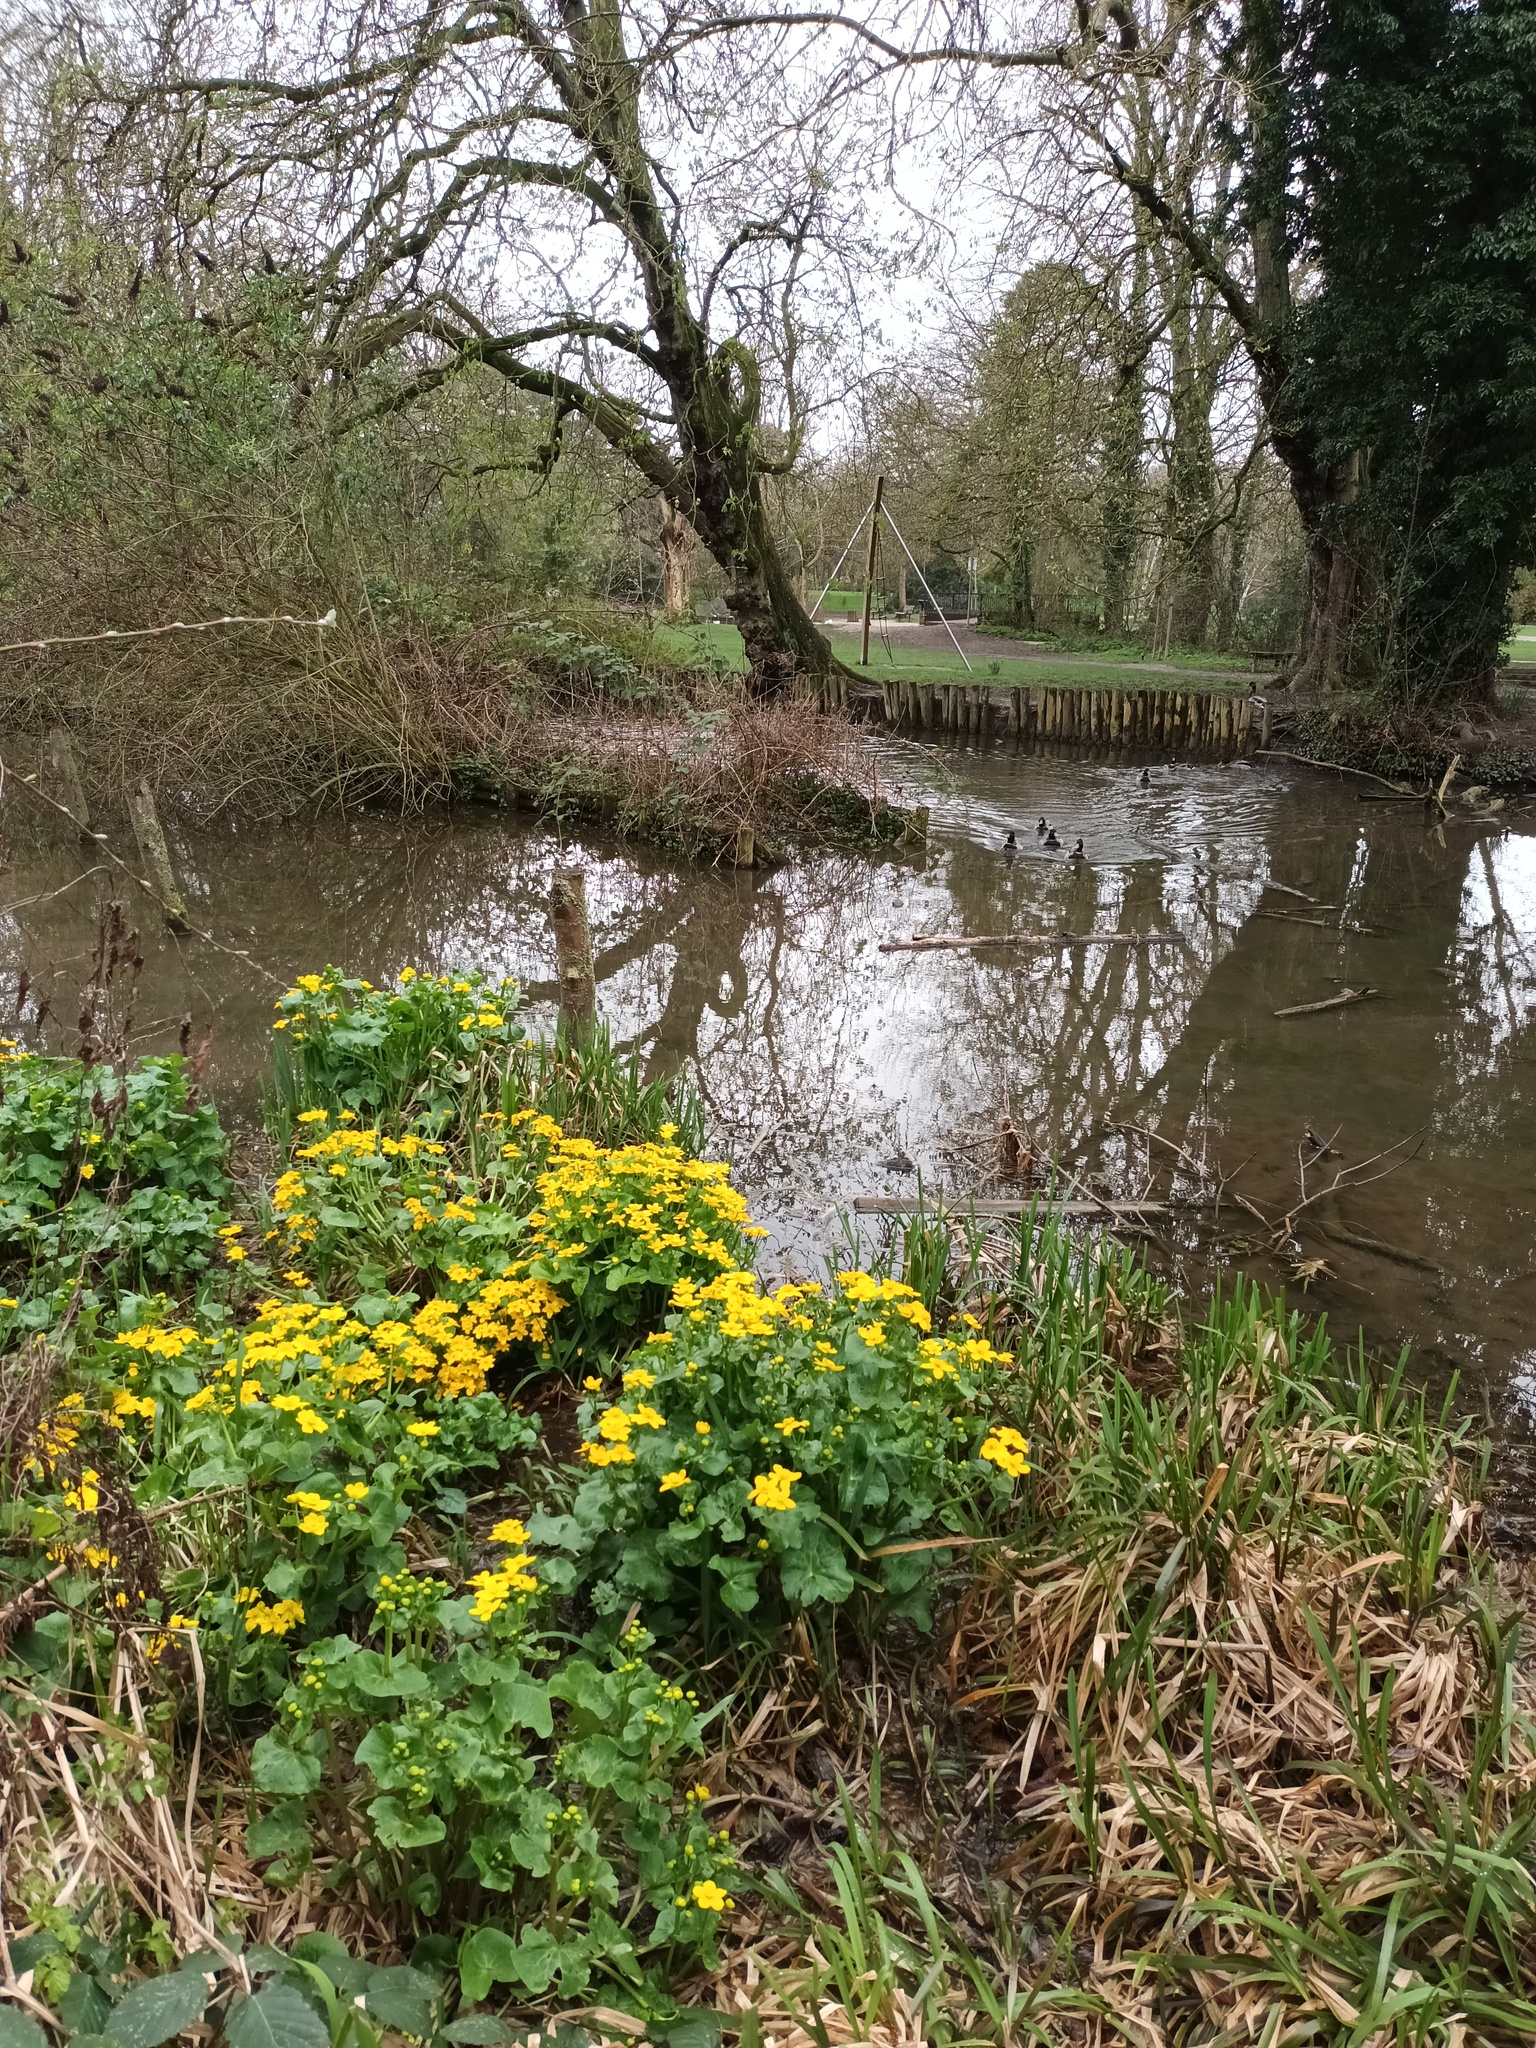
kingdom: Plantae
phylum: Tracheophyta
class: Magnoliopsida
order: Ranunculales
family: Ranunculaceae
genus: Caltha
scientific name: Caltha palustris
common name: Marsh marigold
